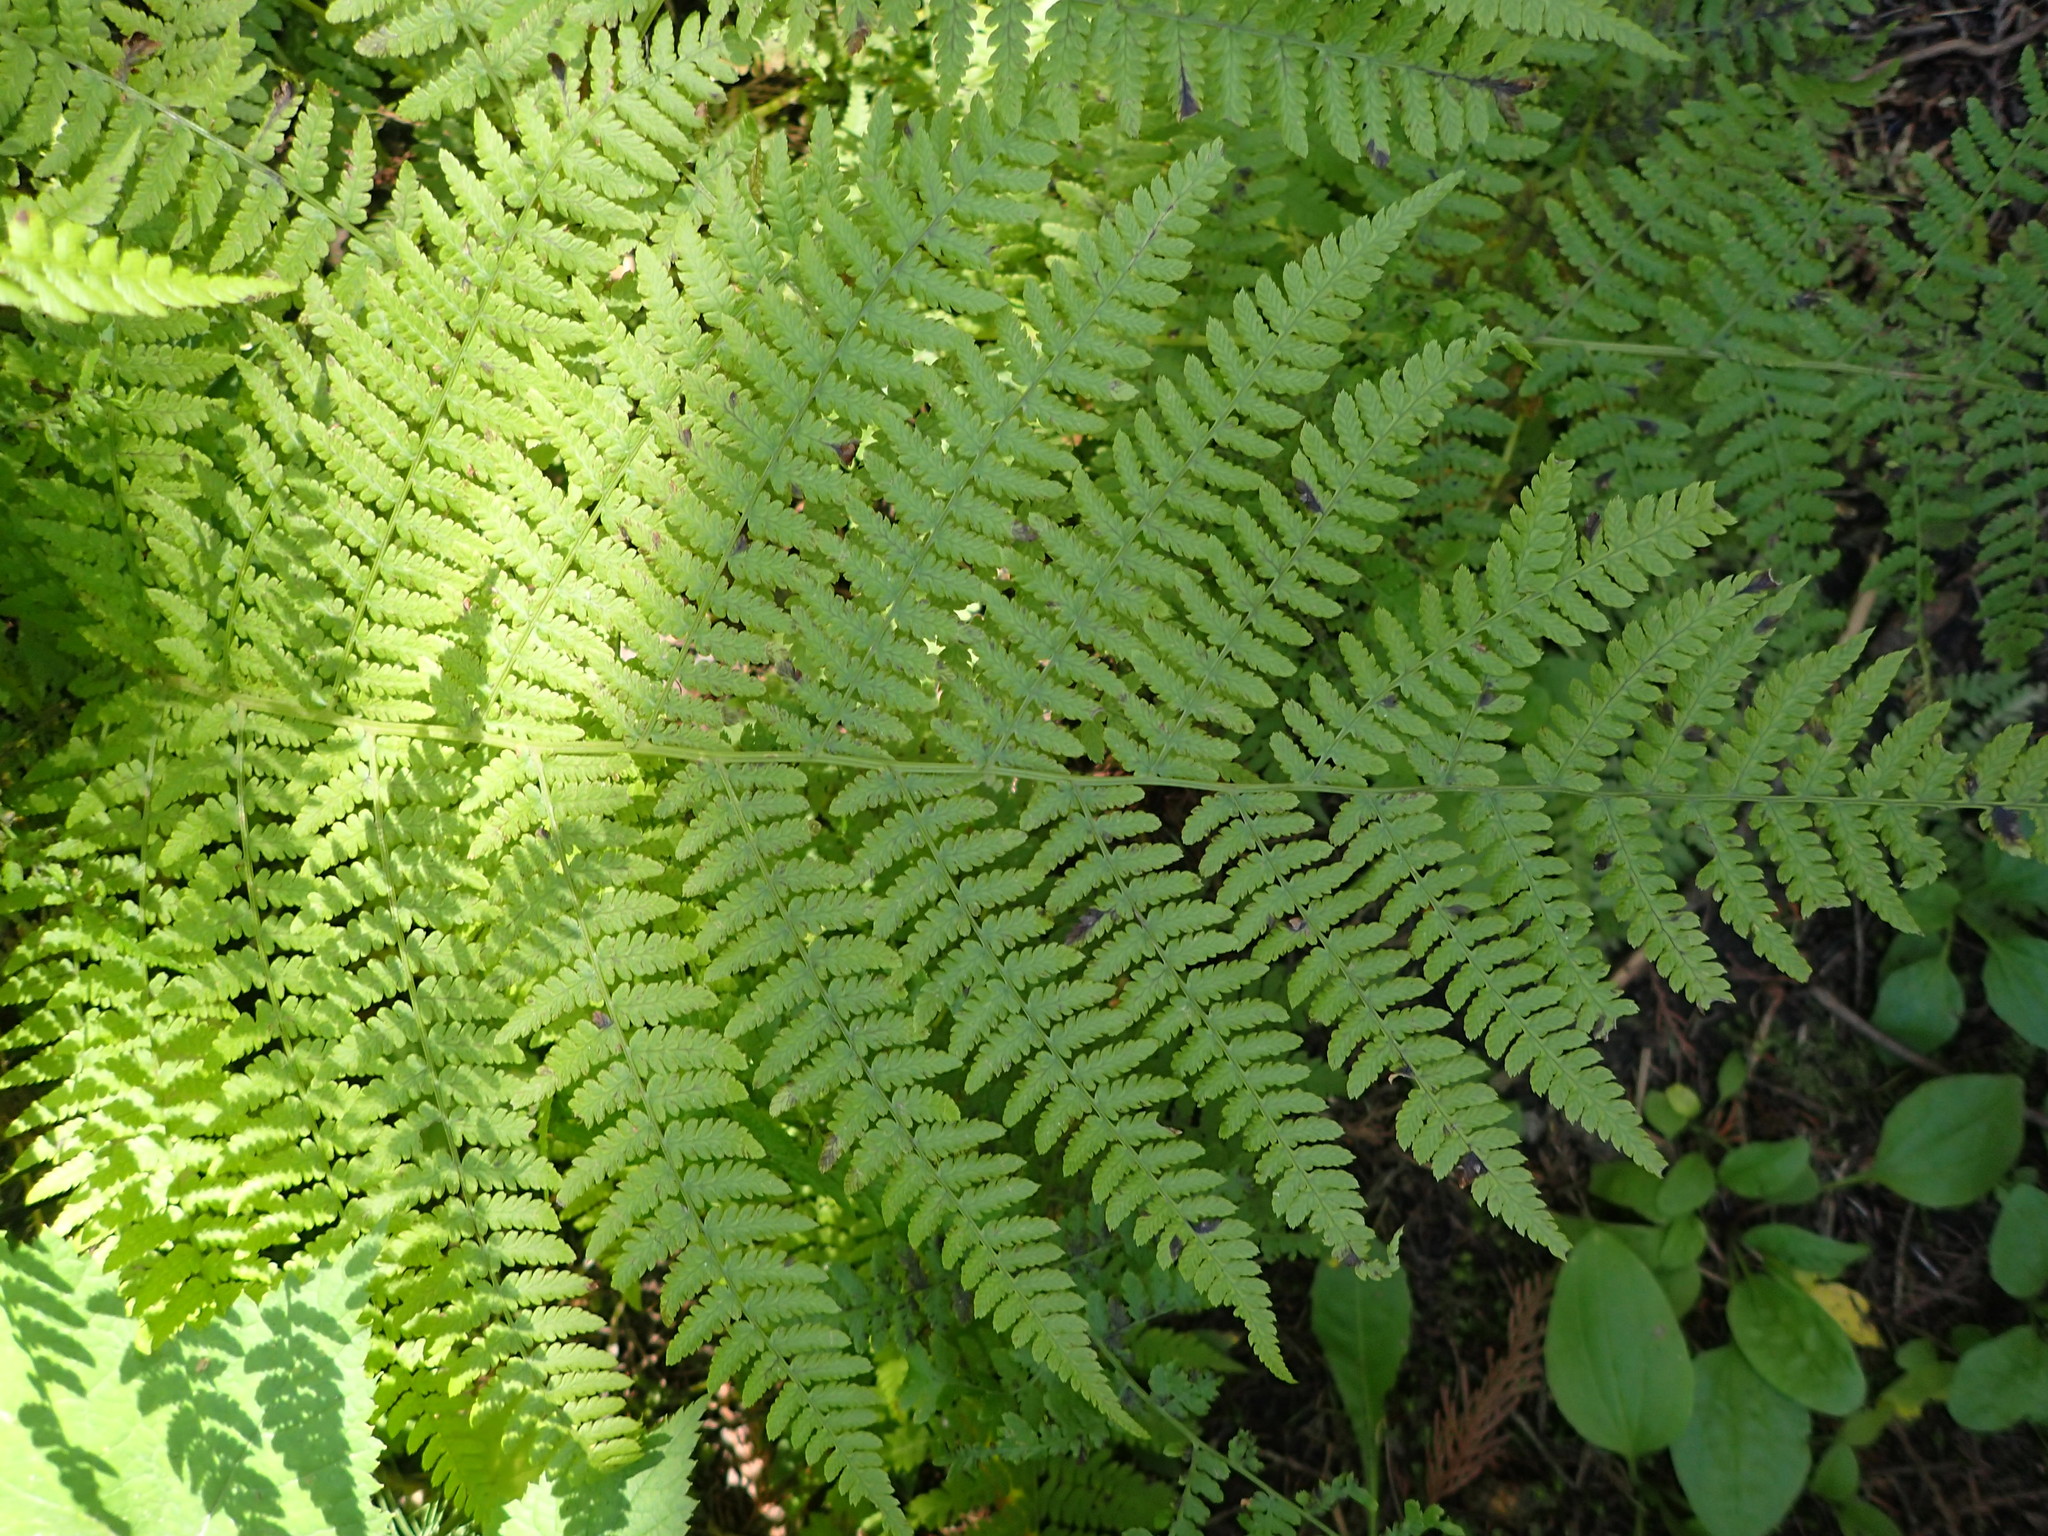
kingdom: Plantae
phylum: Tracheophyta
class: Polypodiopsida
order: Polypodiales
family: Athyriaceae
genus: Athyrium
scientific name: Athyrium cyclosorum
